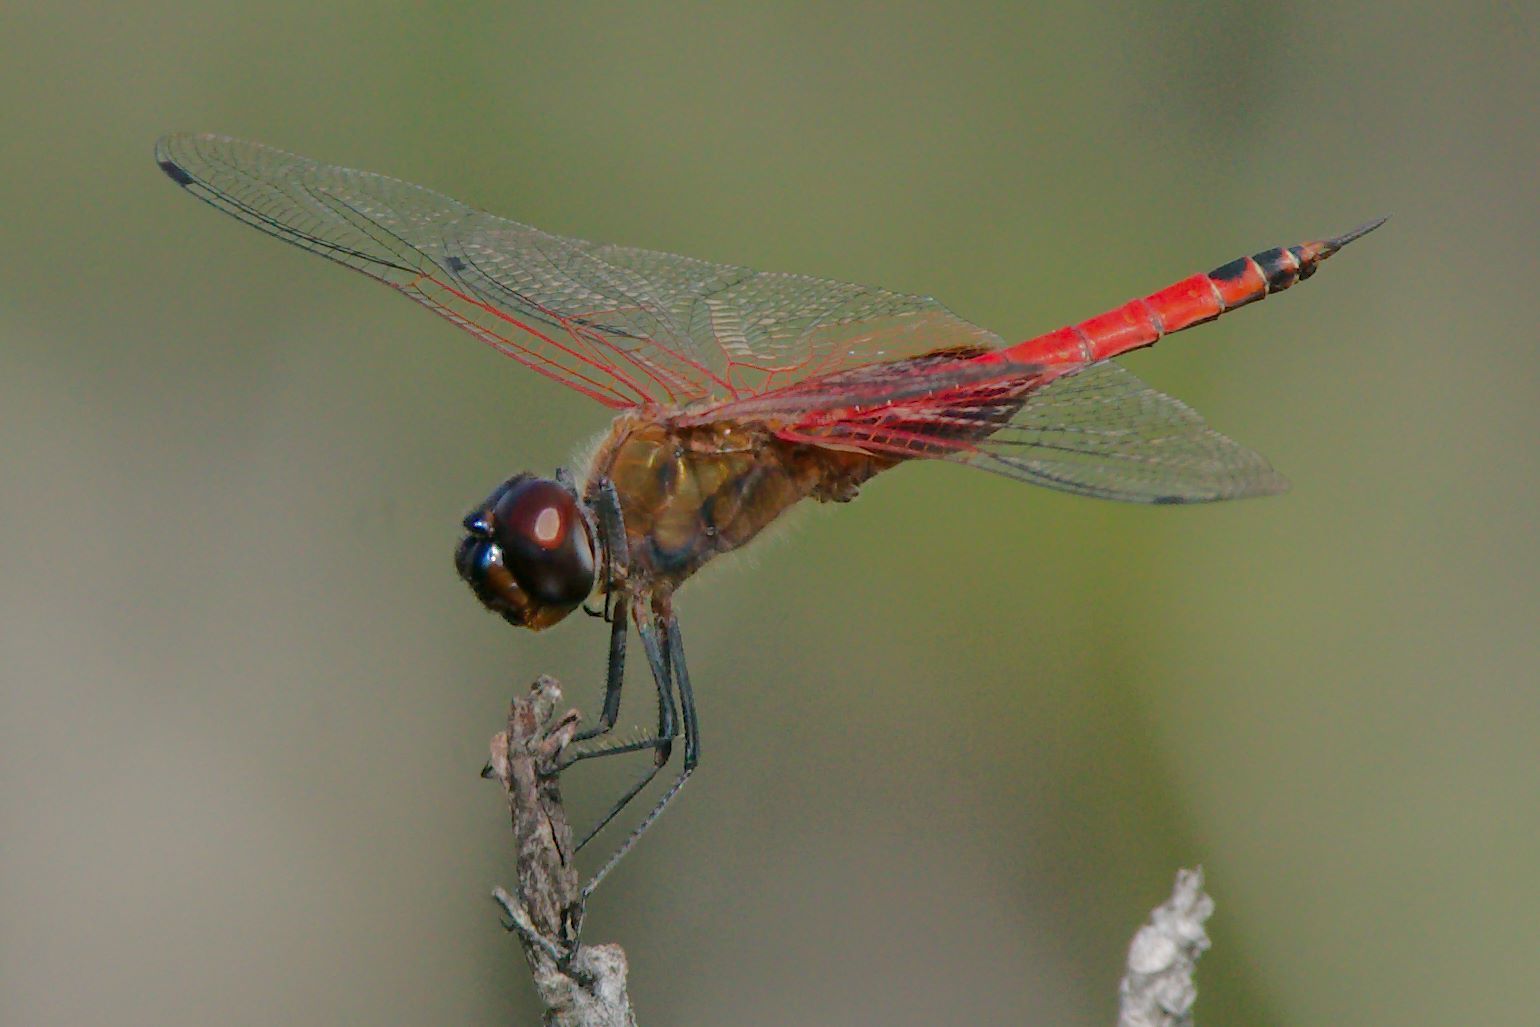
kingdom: Animalia
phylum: Arthropoda
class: Insecta
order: Odonata
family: Libellulidae
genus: Tramea
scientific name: Tramea insularis
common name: Antillean saddlebags
